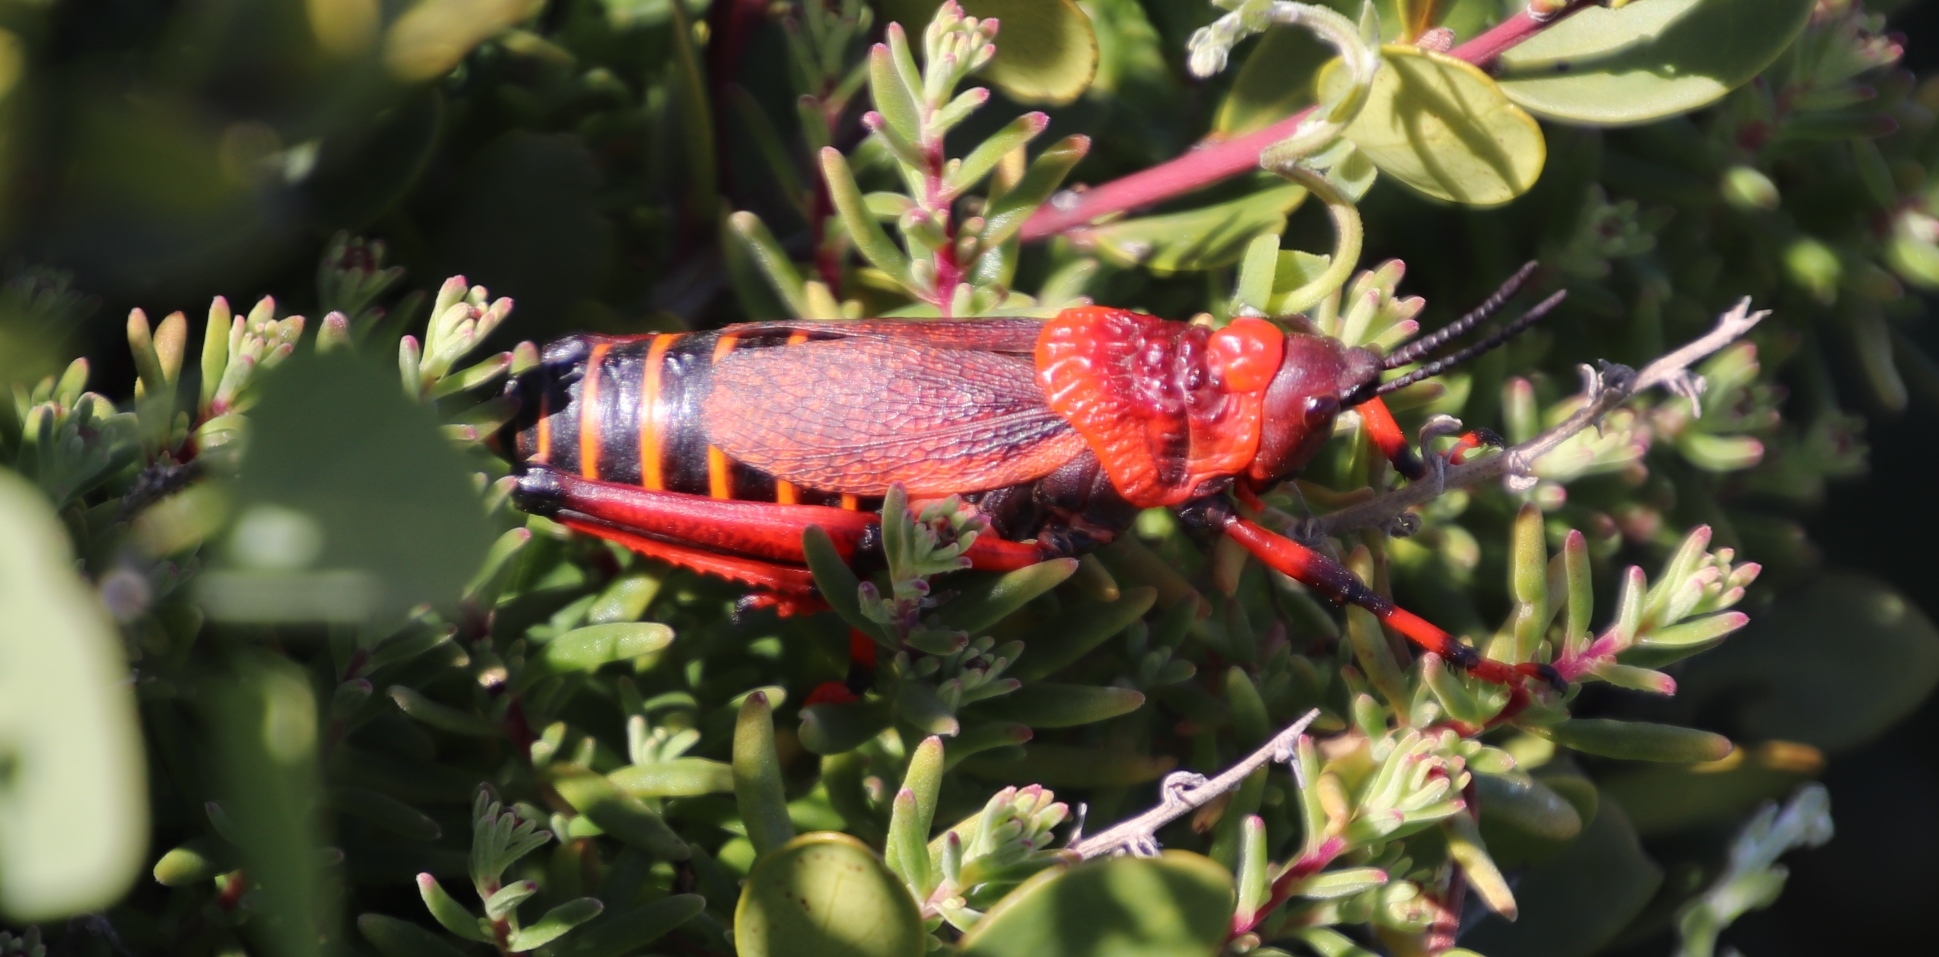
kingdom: Animalia
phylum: Arthropoda
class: Insecta
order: Orthoptera
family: Pyrgomorphidae
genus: Dictyophorus
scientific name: Dictyophorus spumans
